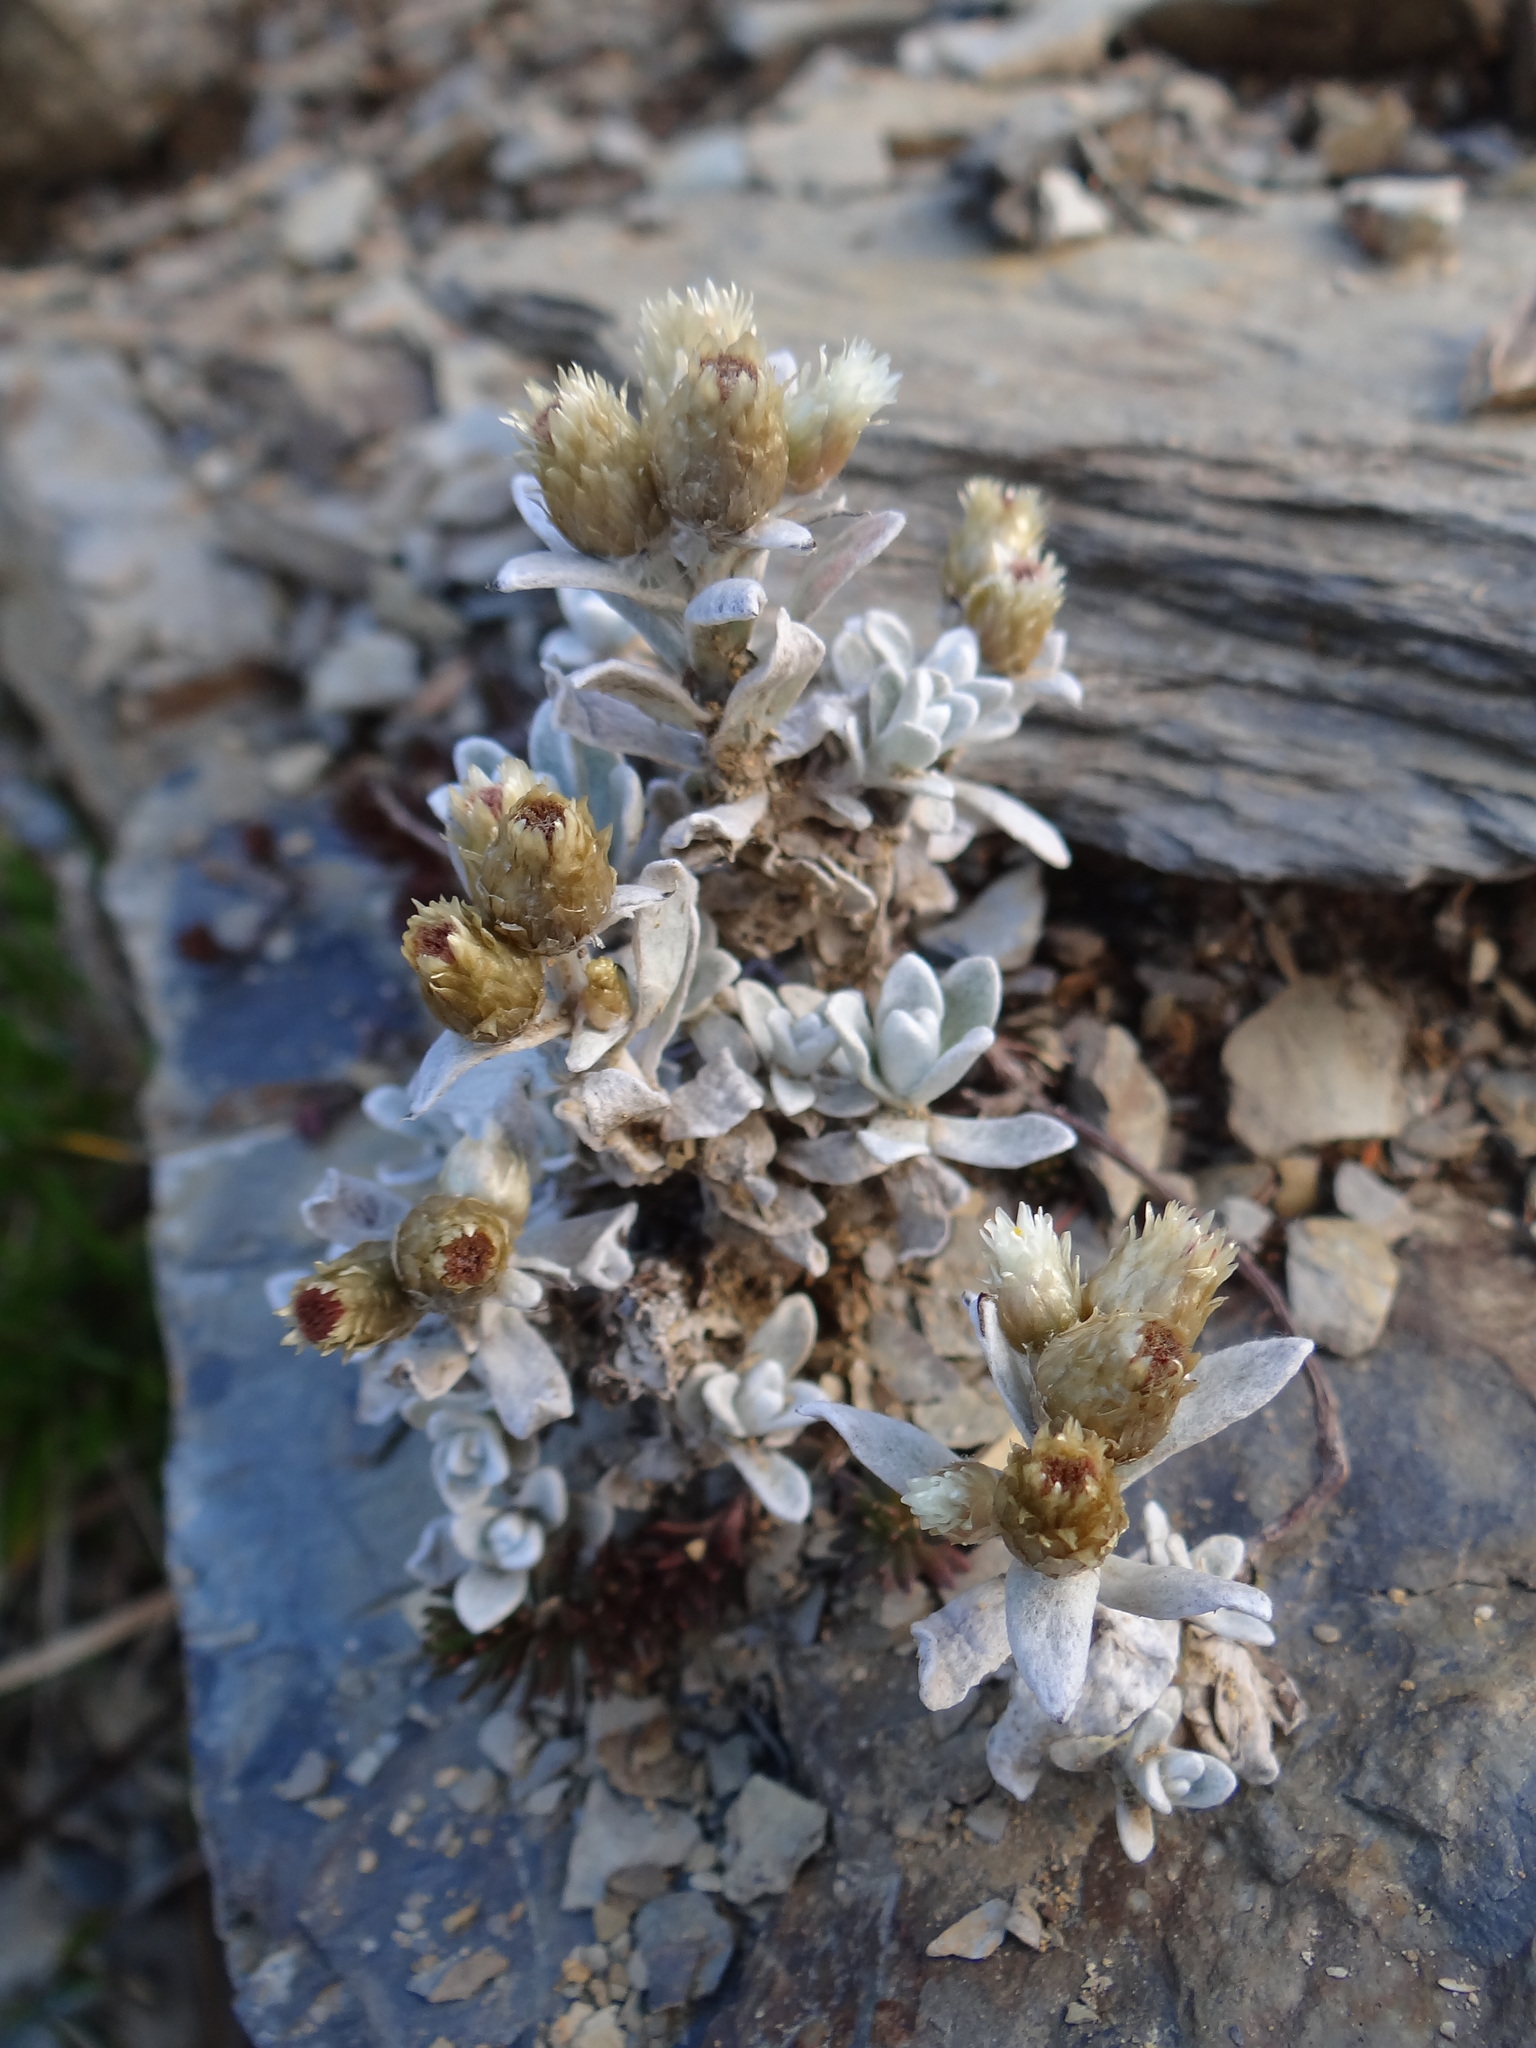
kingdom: Plantae
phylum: Tracheophyta
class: Magnoliopsida
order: Asterales
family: Asteraceae
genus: Anaphalis
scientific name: Anaphalis nepalensis
